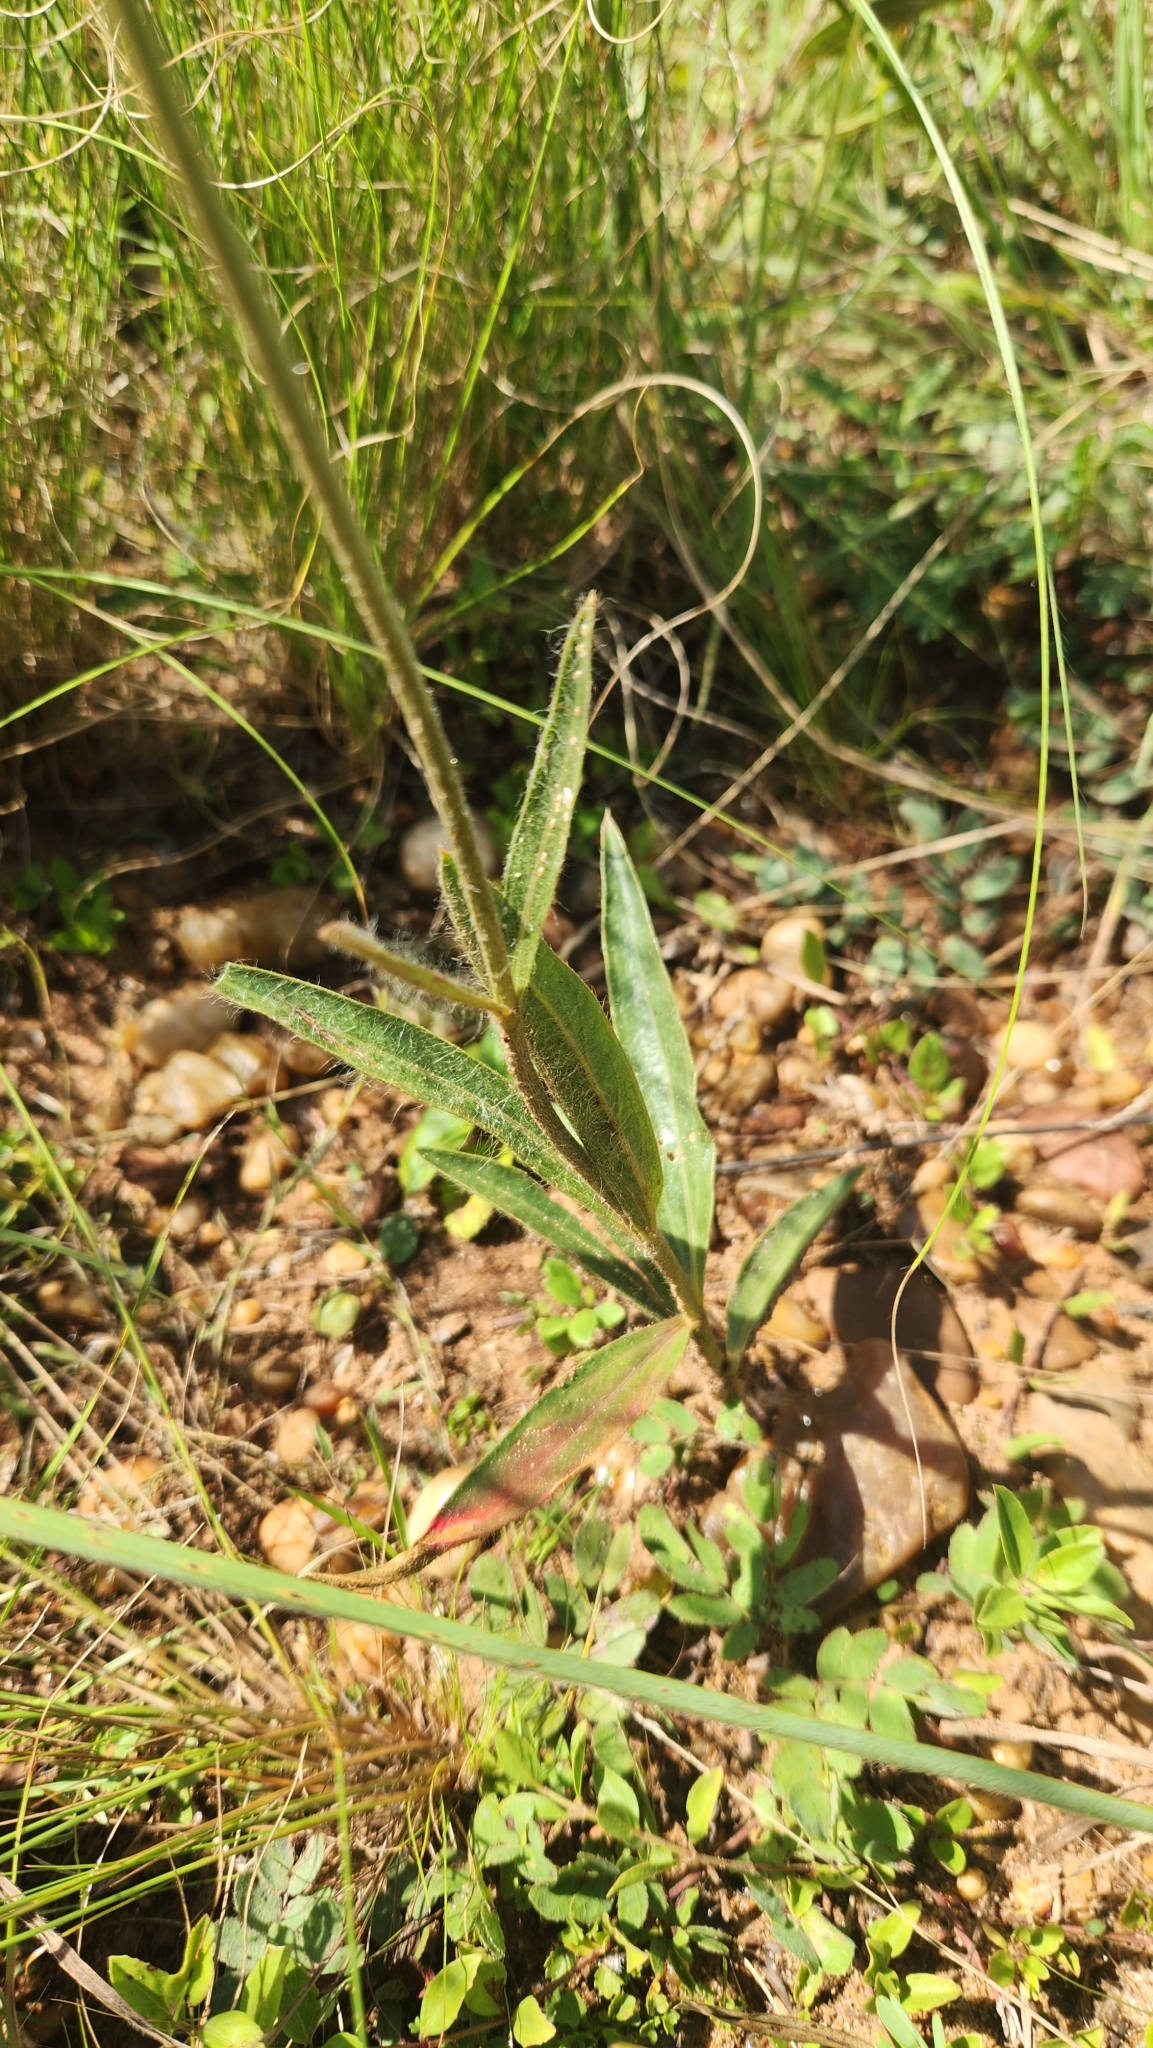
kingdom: Plantae
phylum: Tracheophyta
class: Magnoliopsida
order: Caryophyllales
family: Amaranthaceae
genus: Gomphrena
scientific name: Gomphrena graminea
